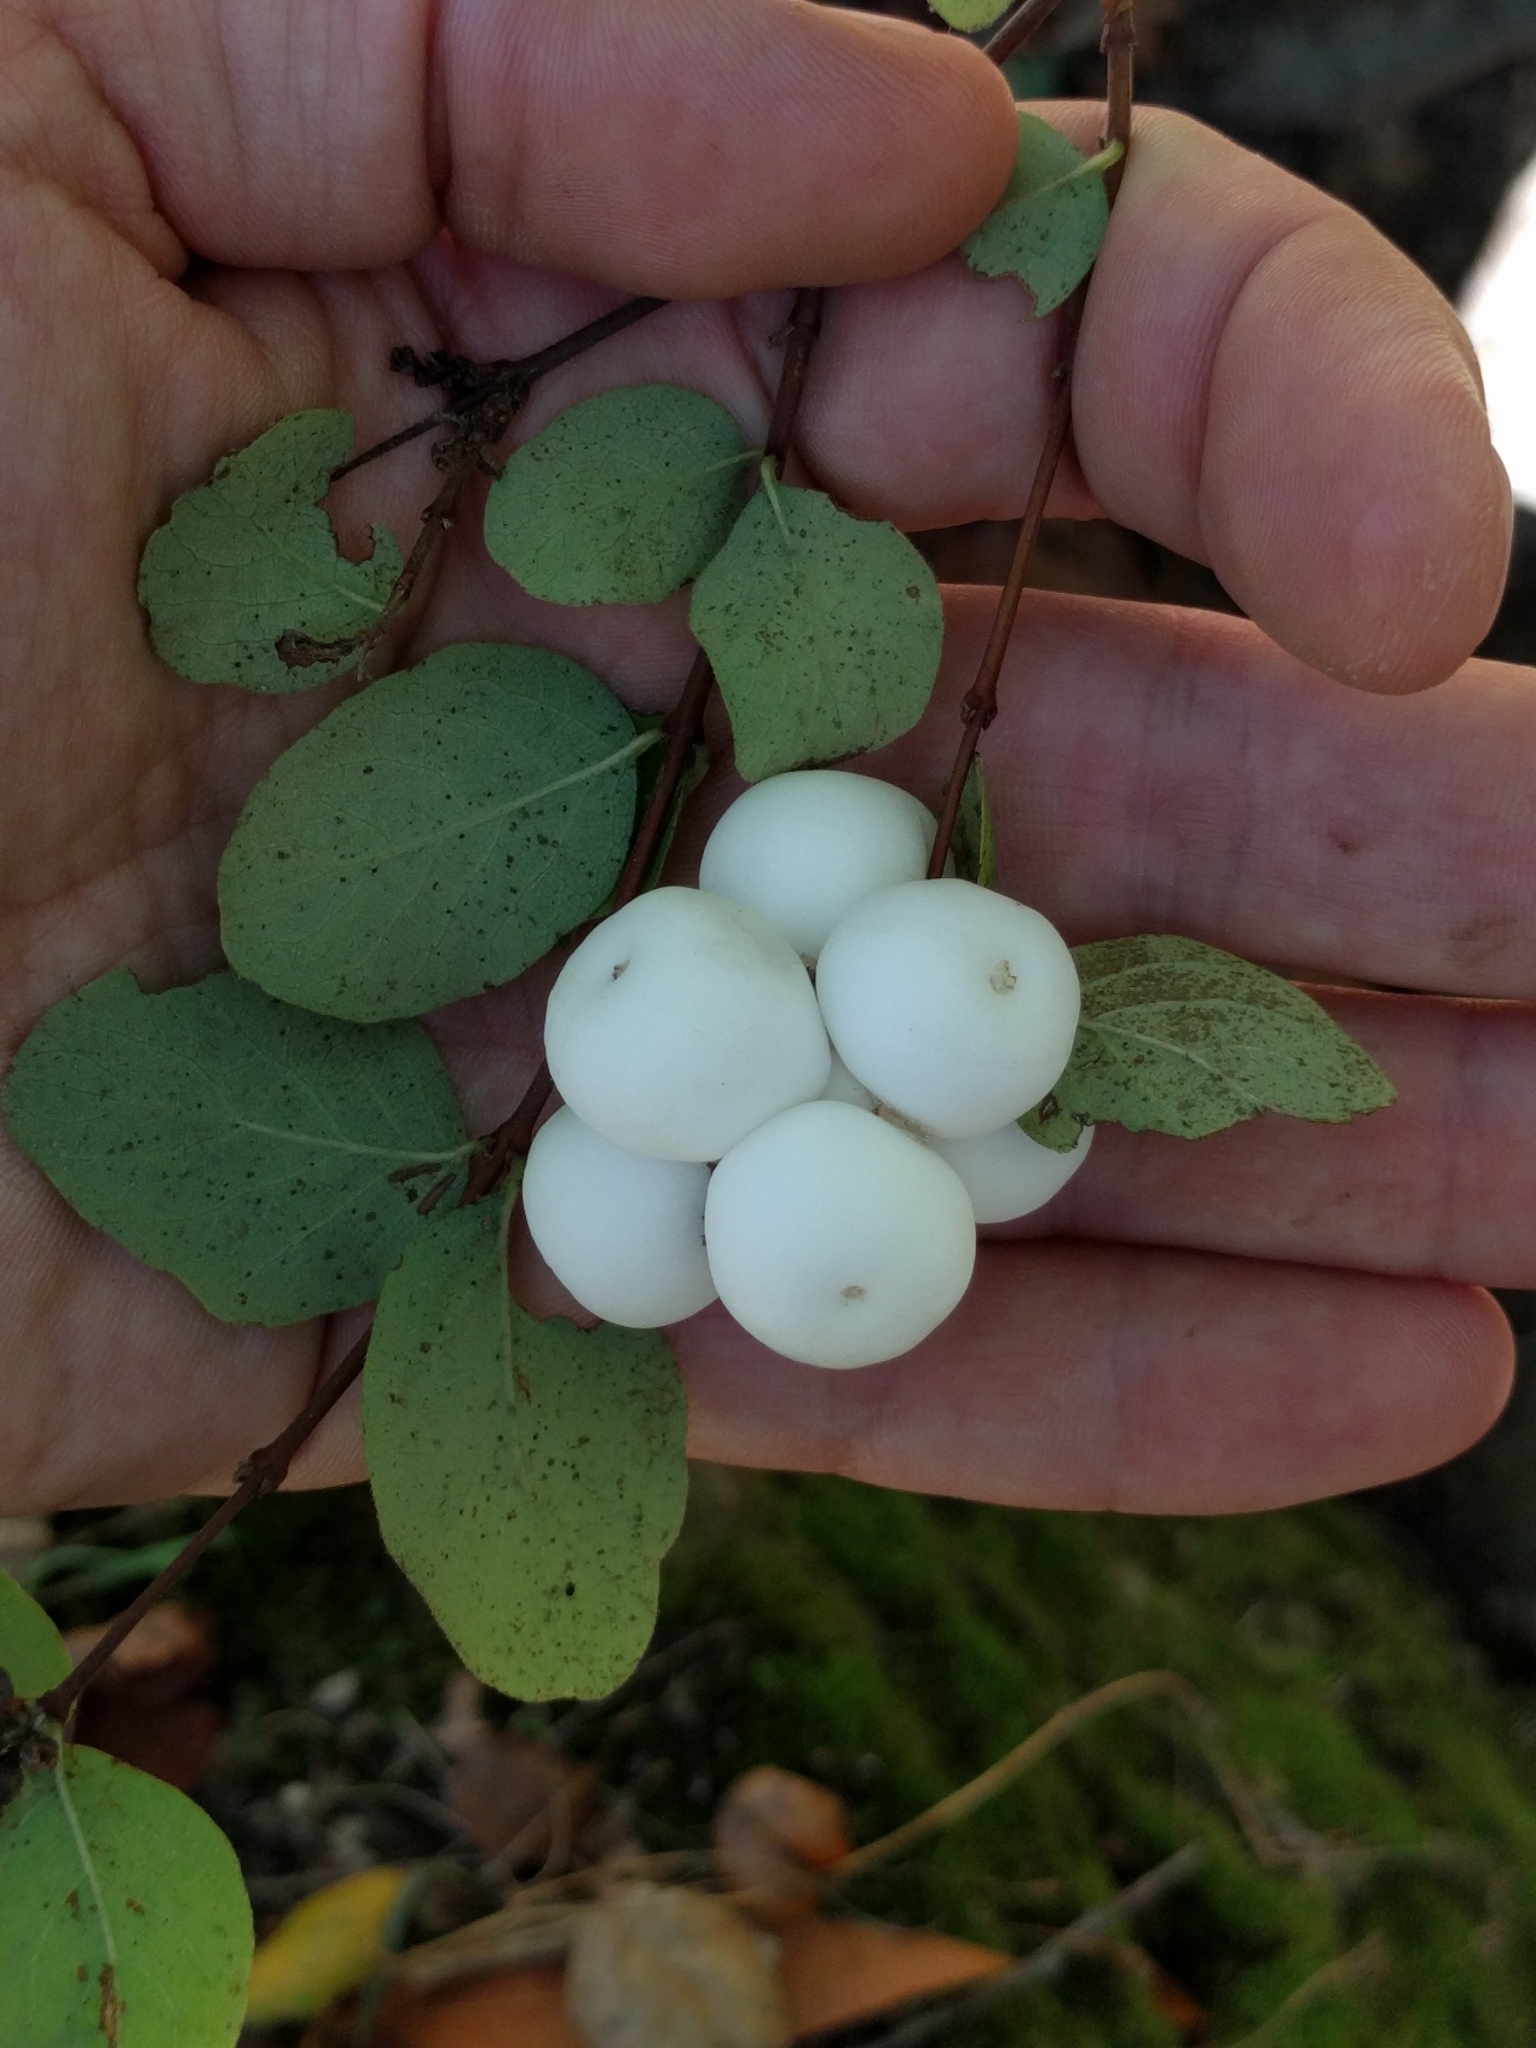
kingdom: Plantae
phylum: Tracheophyta
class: Magnoliopsida
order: Dipsacales
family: Caprifoliaceae
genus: Symphoricarpos
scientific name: Symphoricarpos albus
